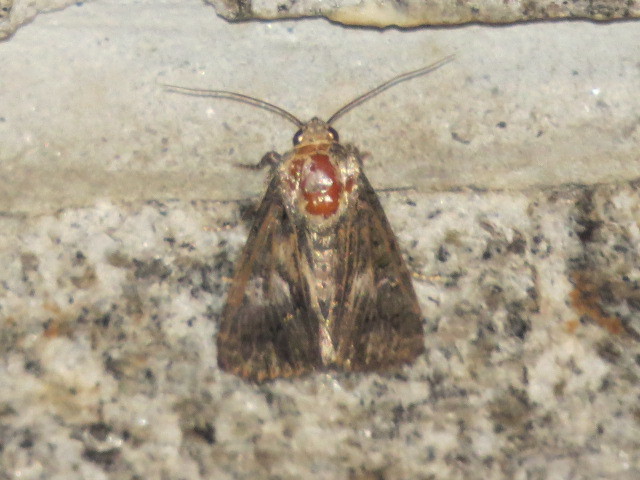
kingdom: Animalia
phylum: Arthropoda
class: Insecta
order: Lepidoptera
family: Noctuidae
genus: Aedia
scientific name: Aedia leucomelas
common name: Sorcerer
